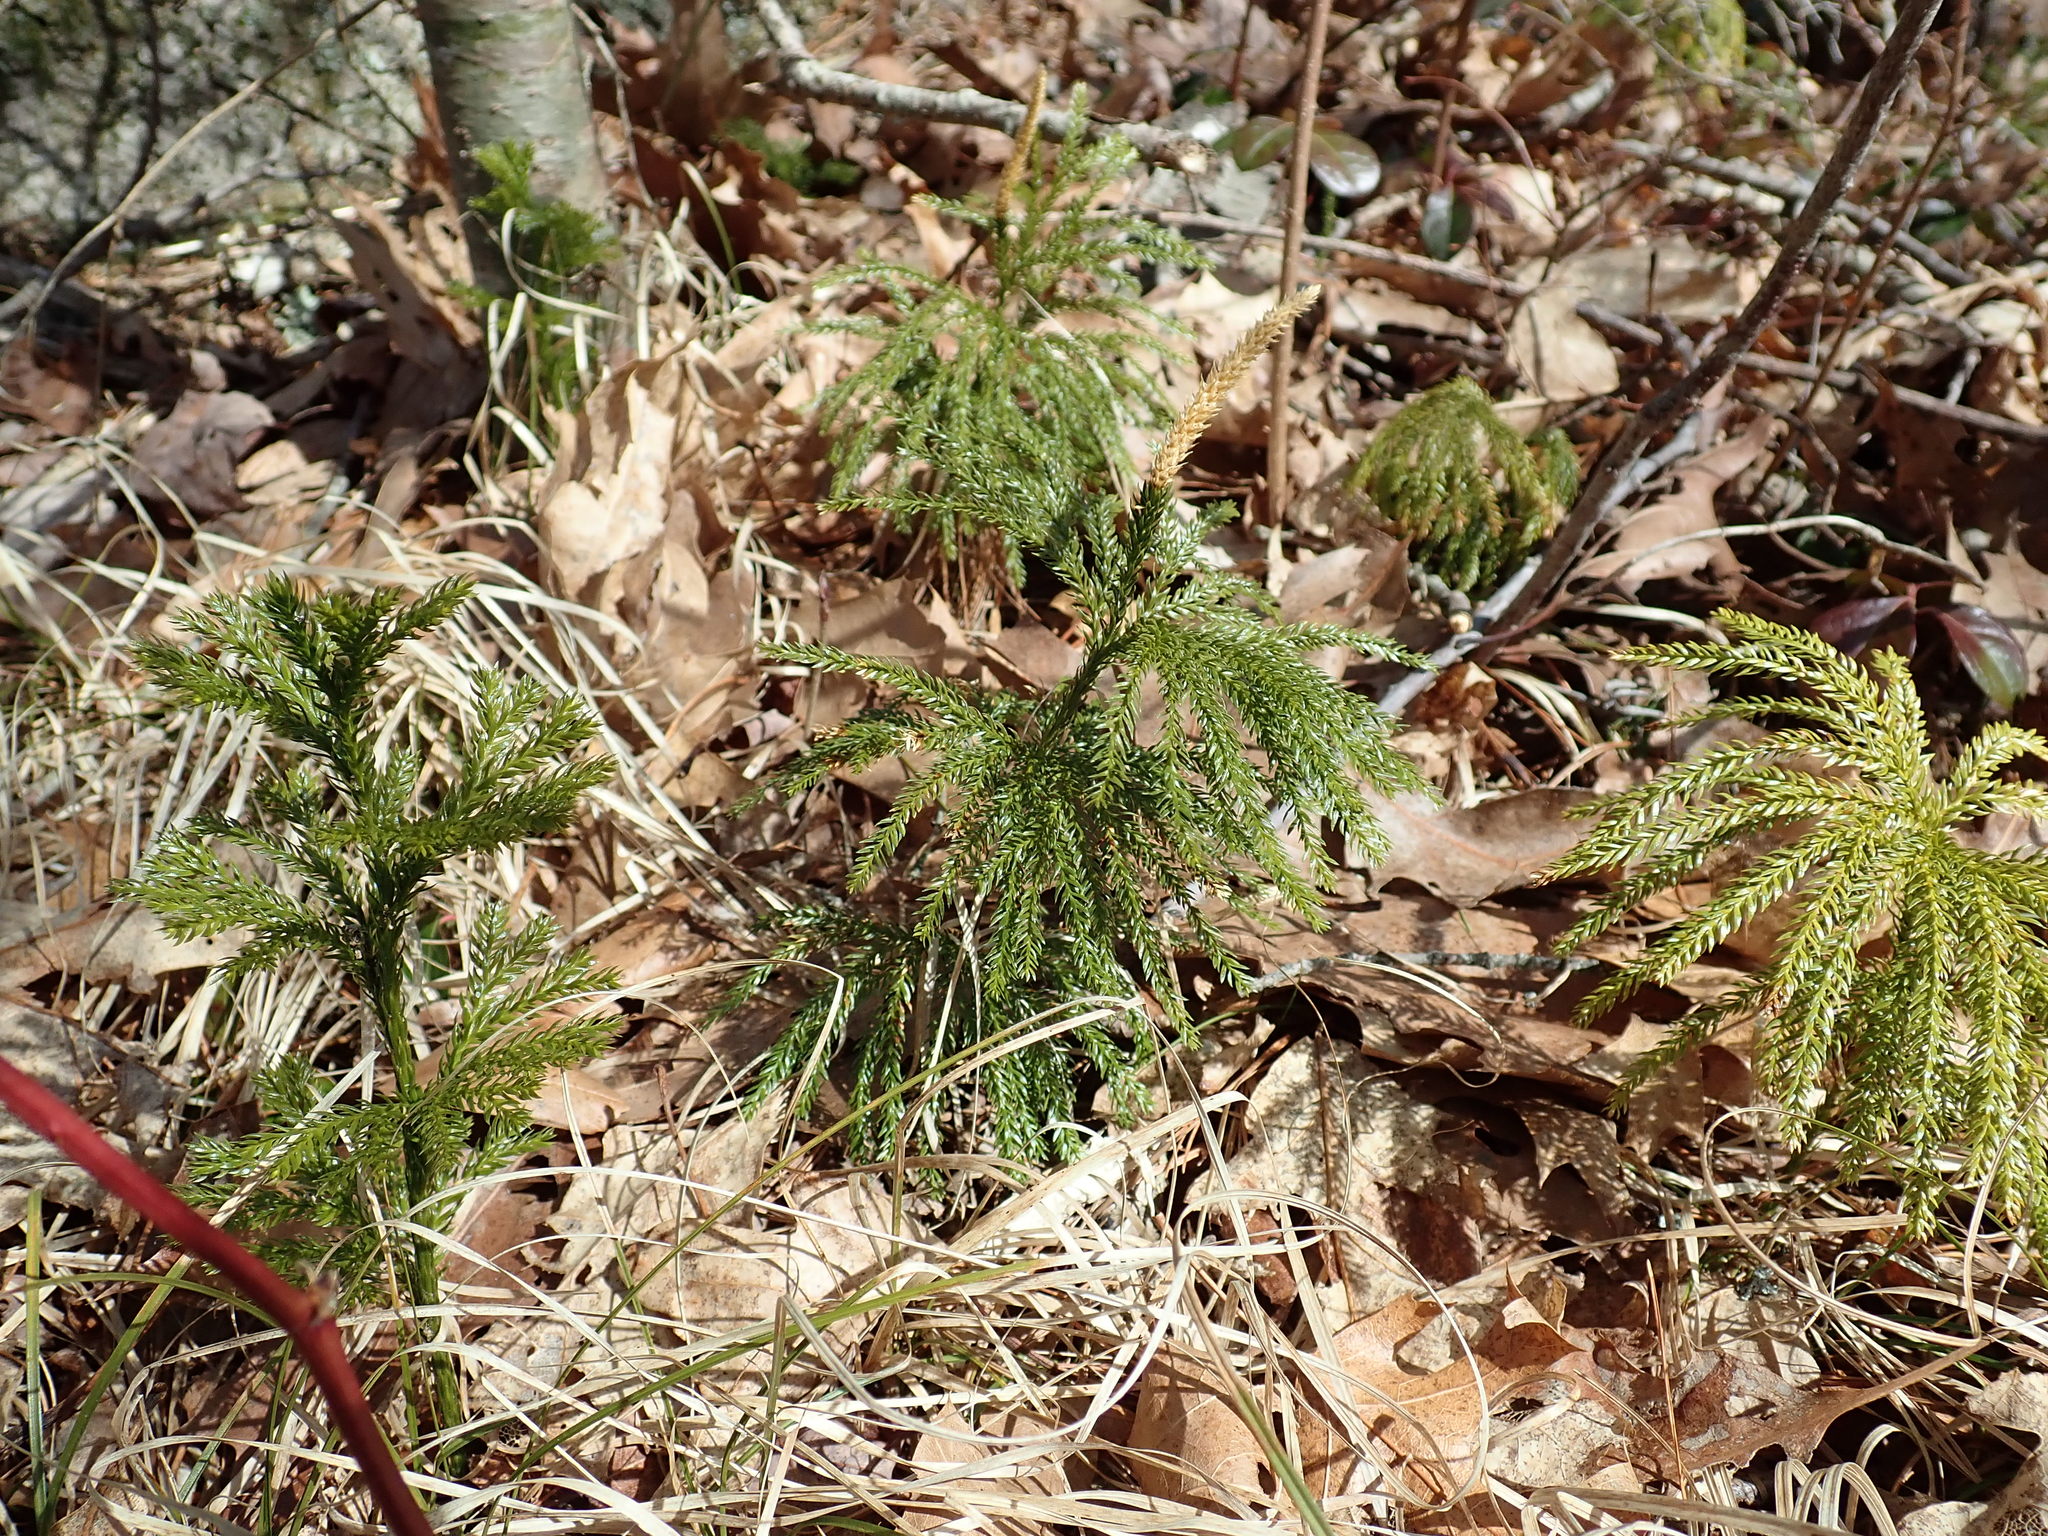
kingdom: Plantae
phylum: Tracheophyta
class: Lycopodiopsida
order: Lycopodiales
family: Lycopodiaceae
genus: Dendrolycopodium
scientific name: Dendrolycopodium obscurum
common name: Common ground-pine
